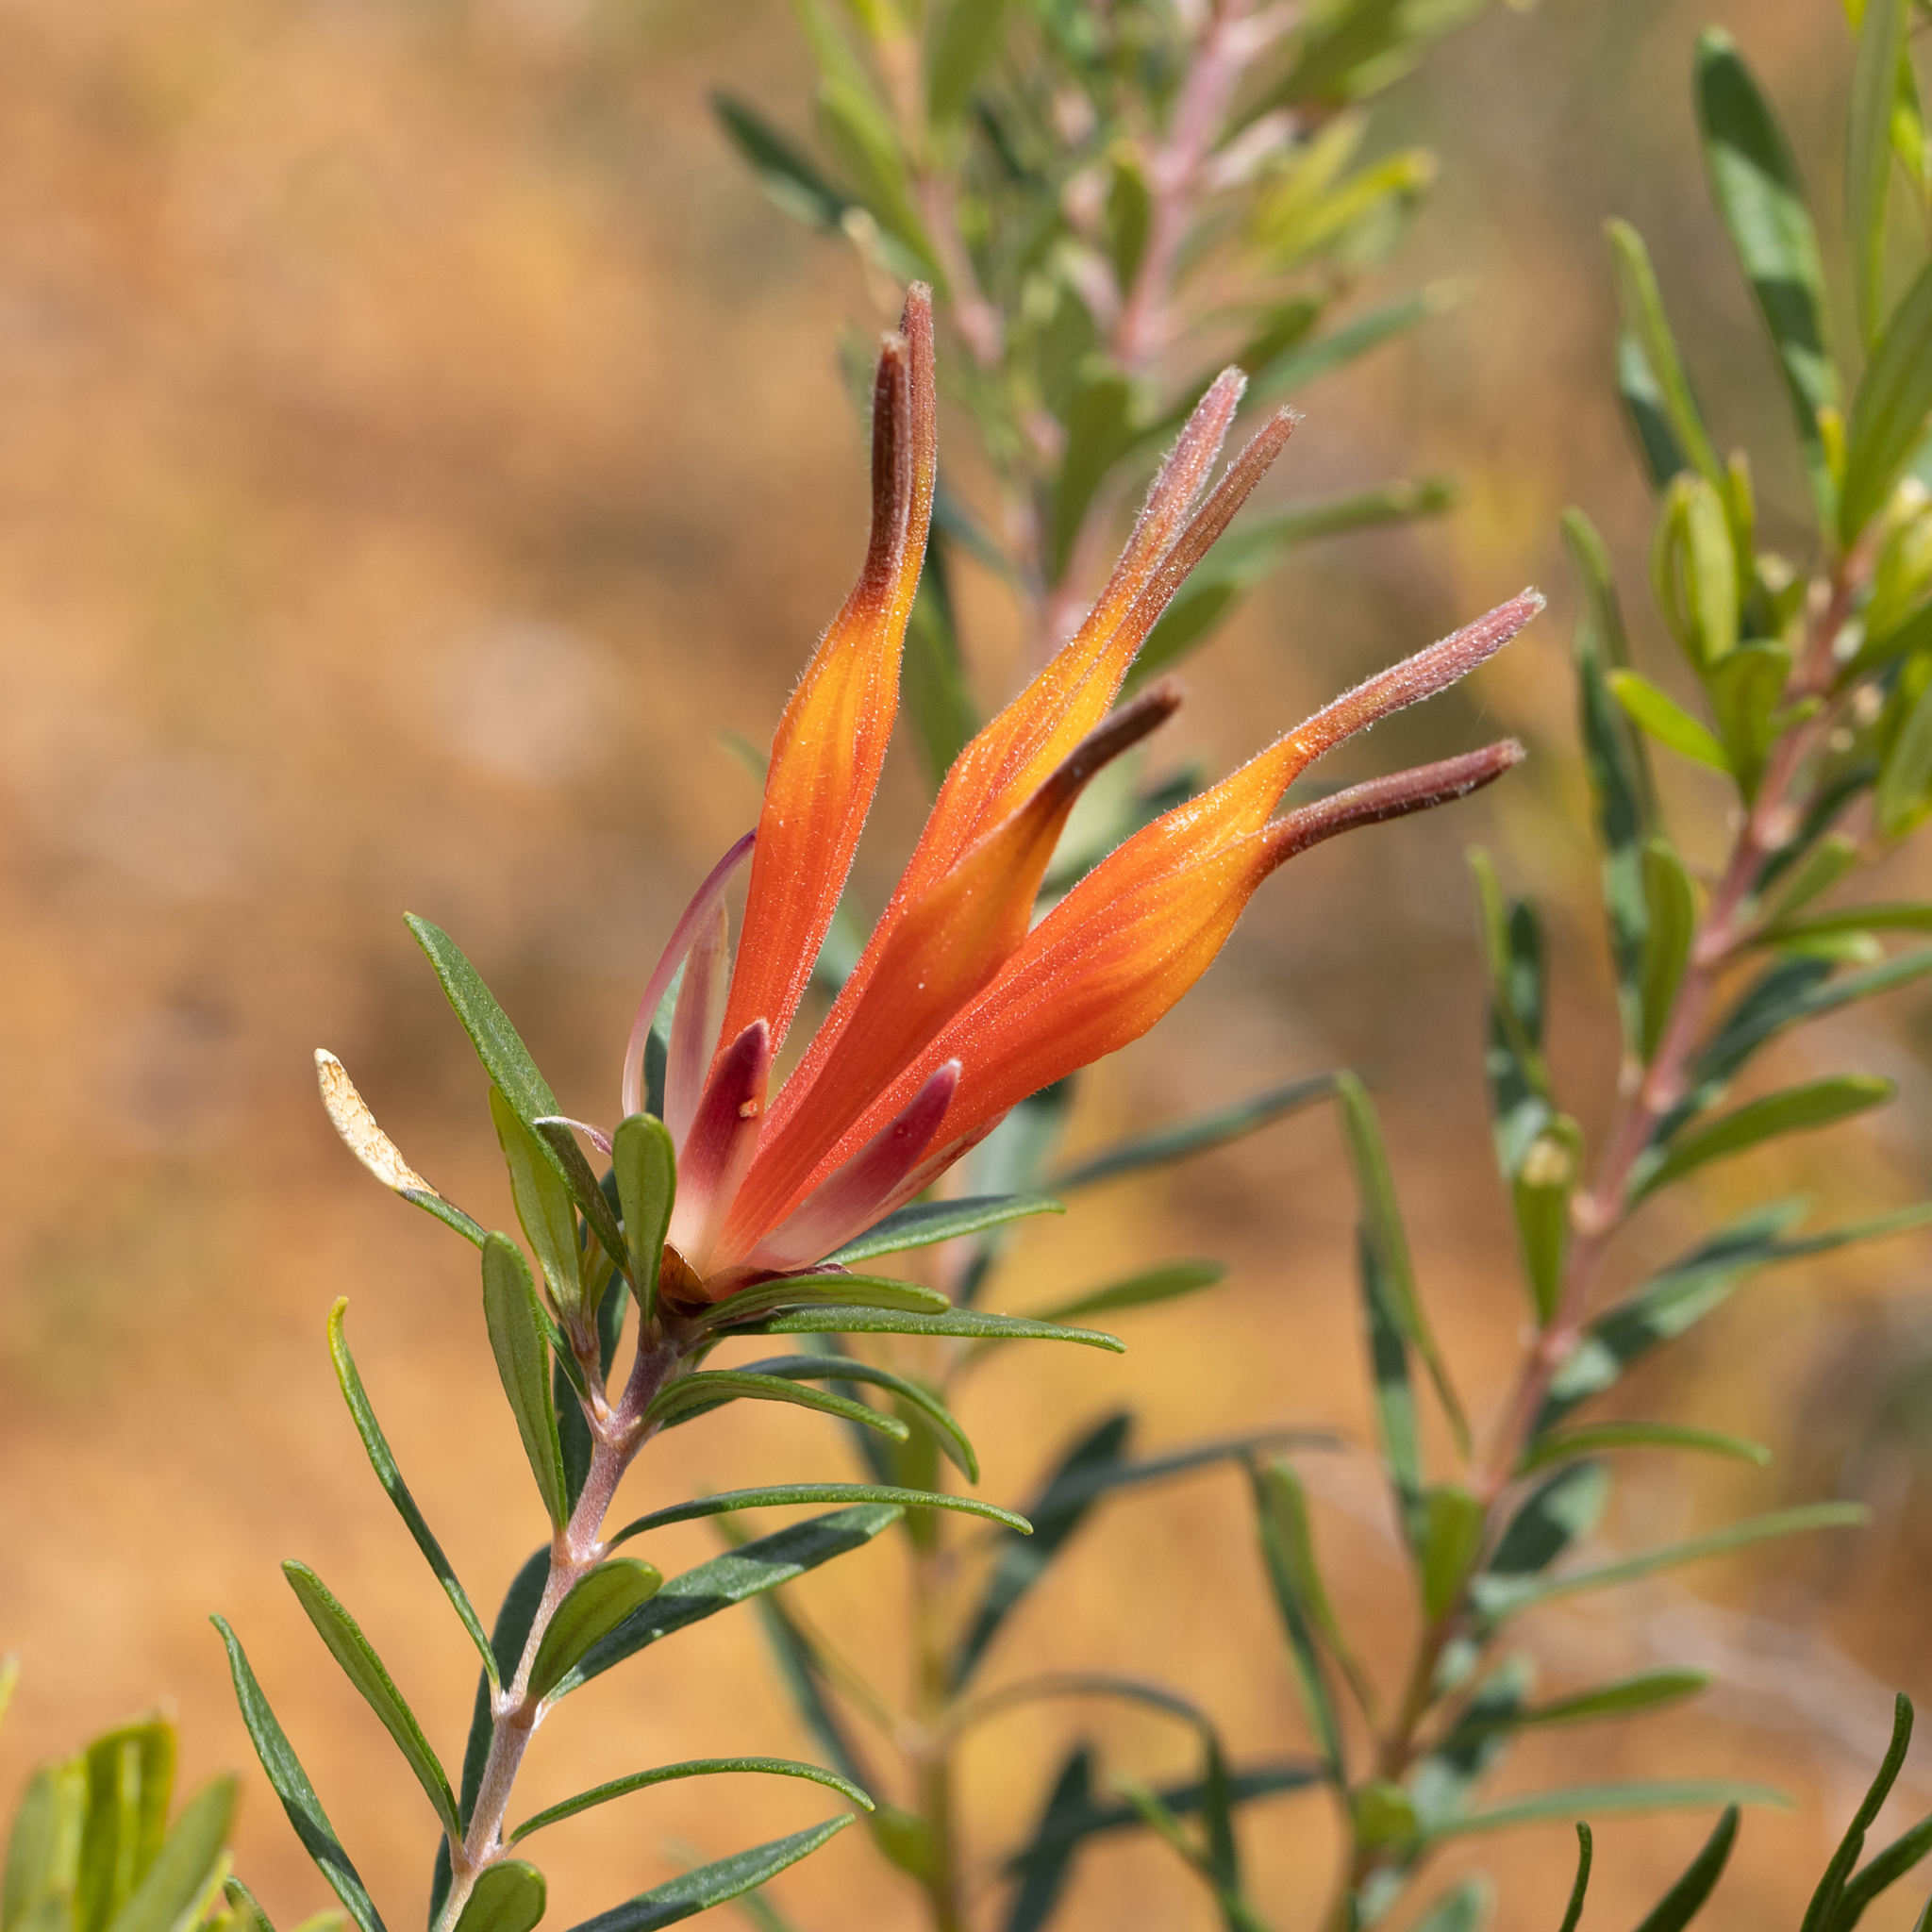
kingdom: Plantae
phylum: Tracheophyta
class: Magnoliopsida
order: Proteales
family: Proteaceae
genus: Lambertia
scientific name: Lambertia inermis
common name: Chittick
